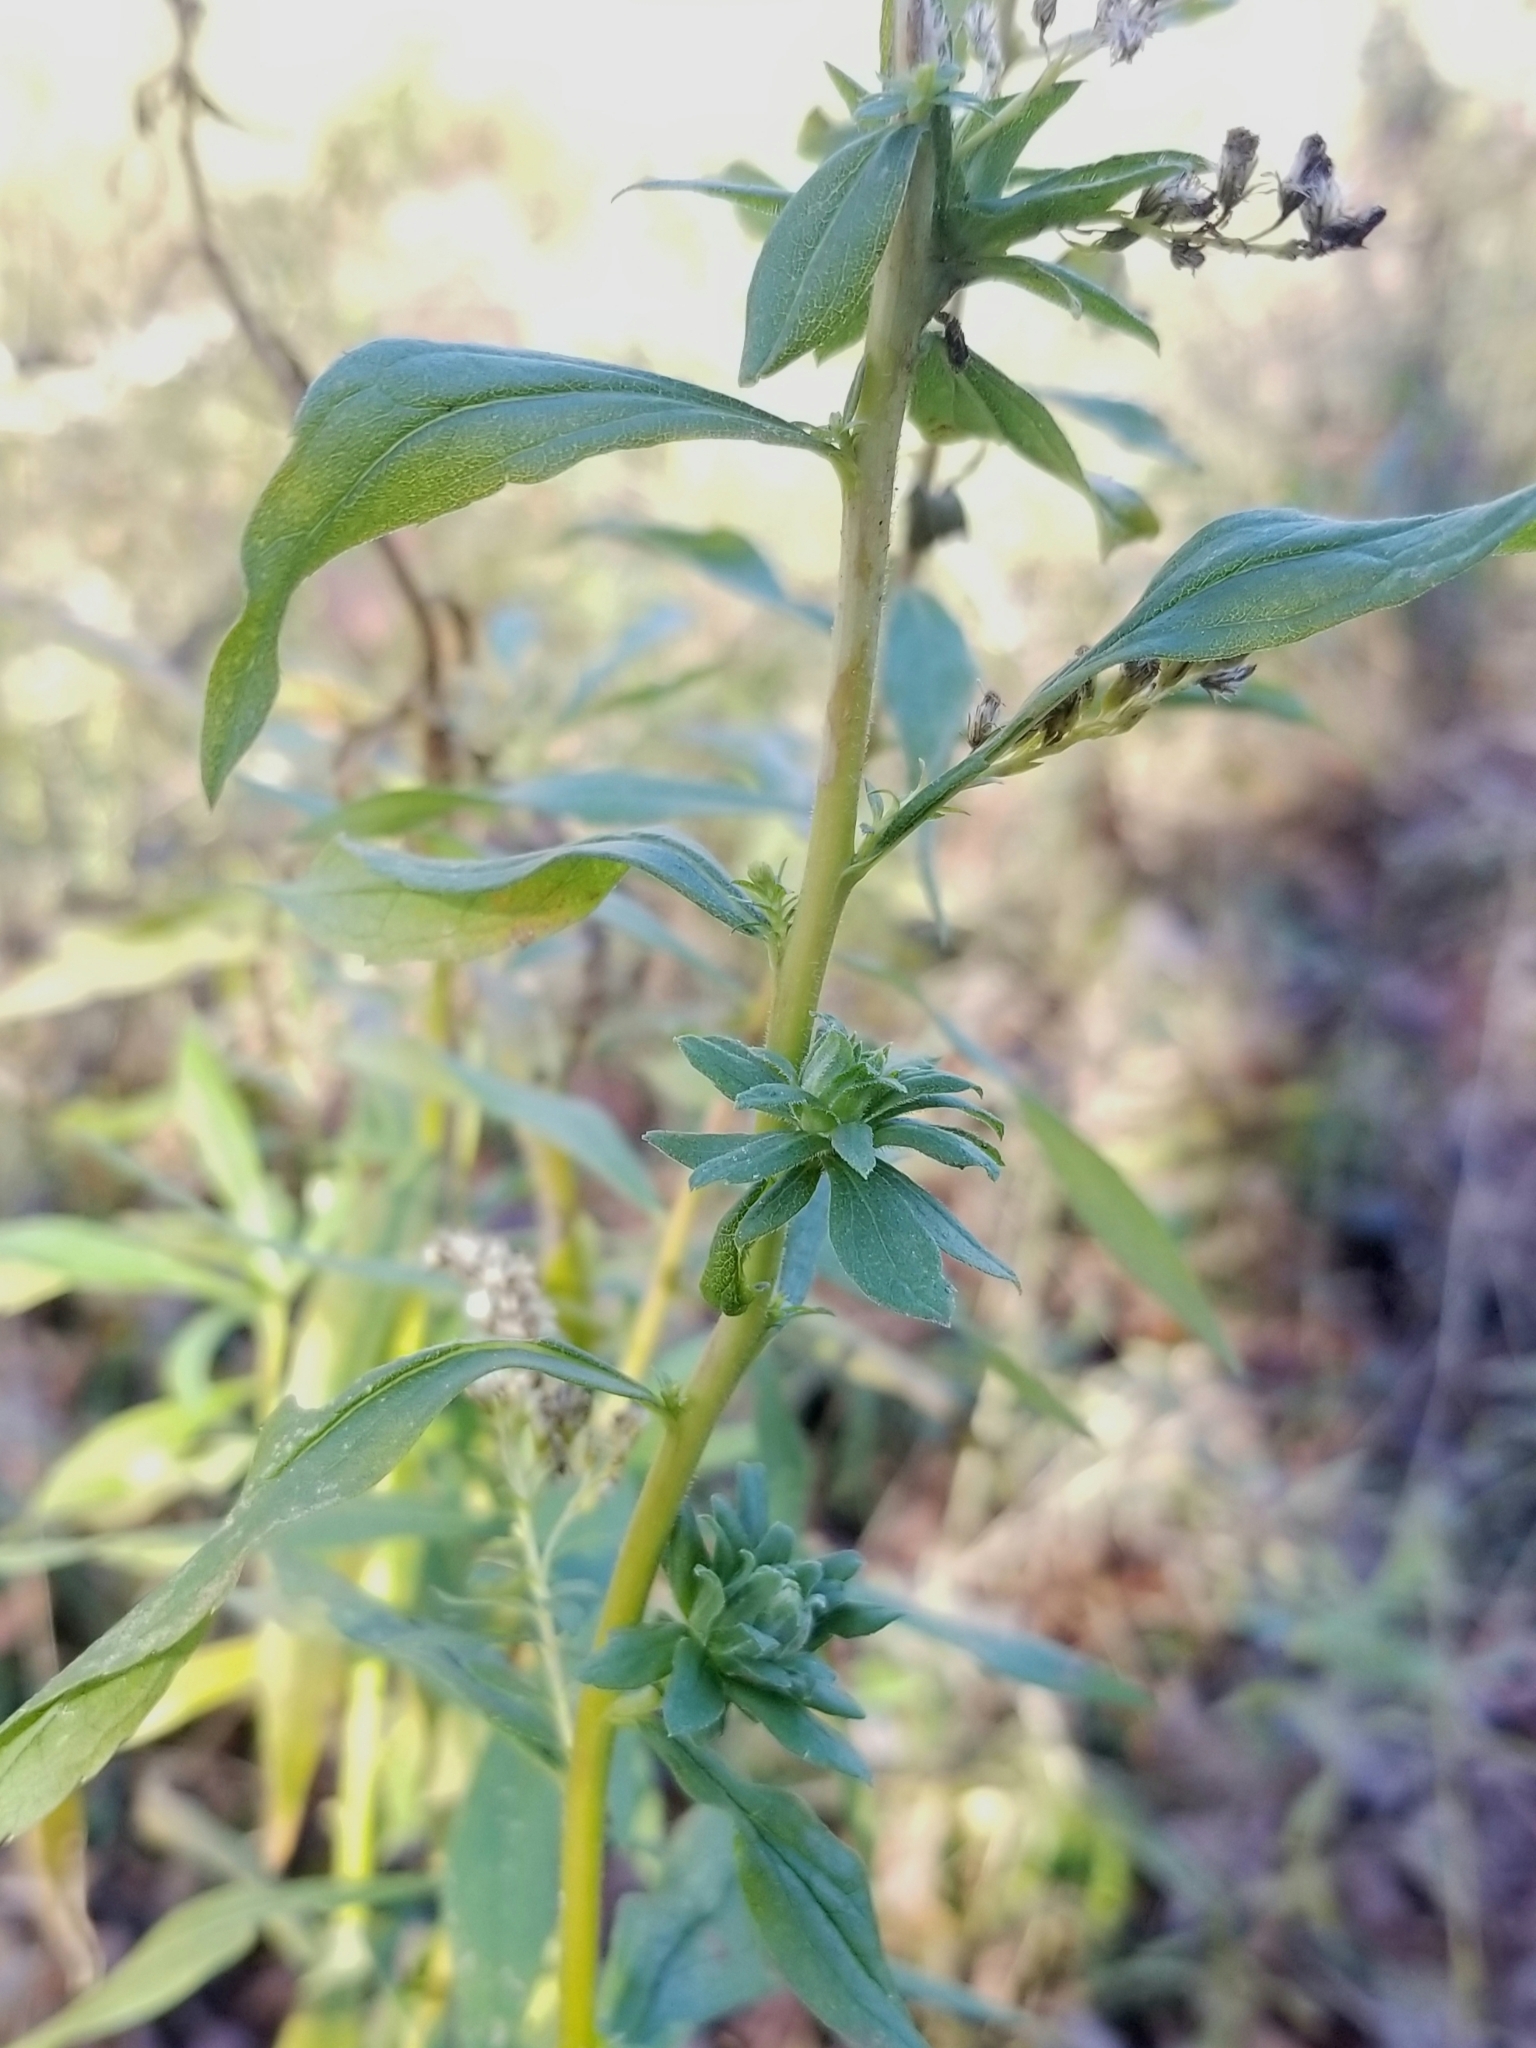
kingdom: Animalia
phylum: Arthropoda
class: Insecta
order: Diptera
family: Tephritidae
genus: Procecidochares
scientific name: Procecidochares atra
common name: Goldenrod brussels sprout gall fly
